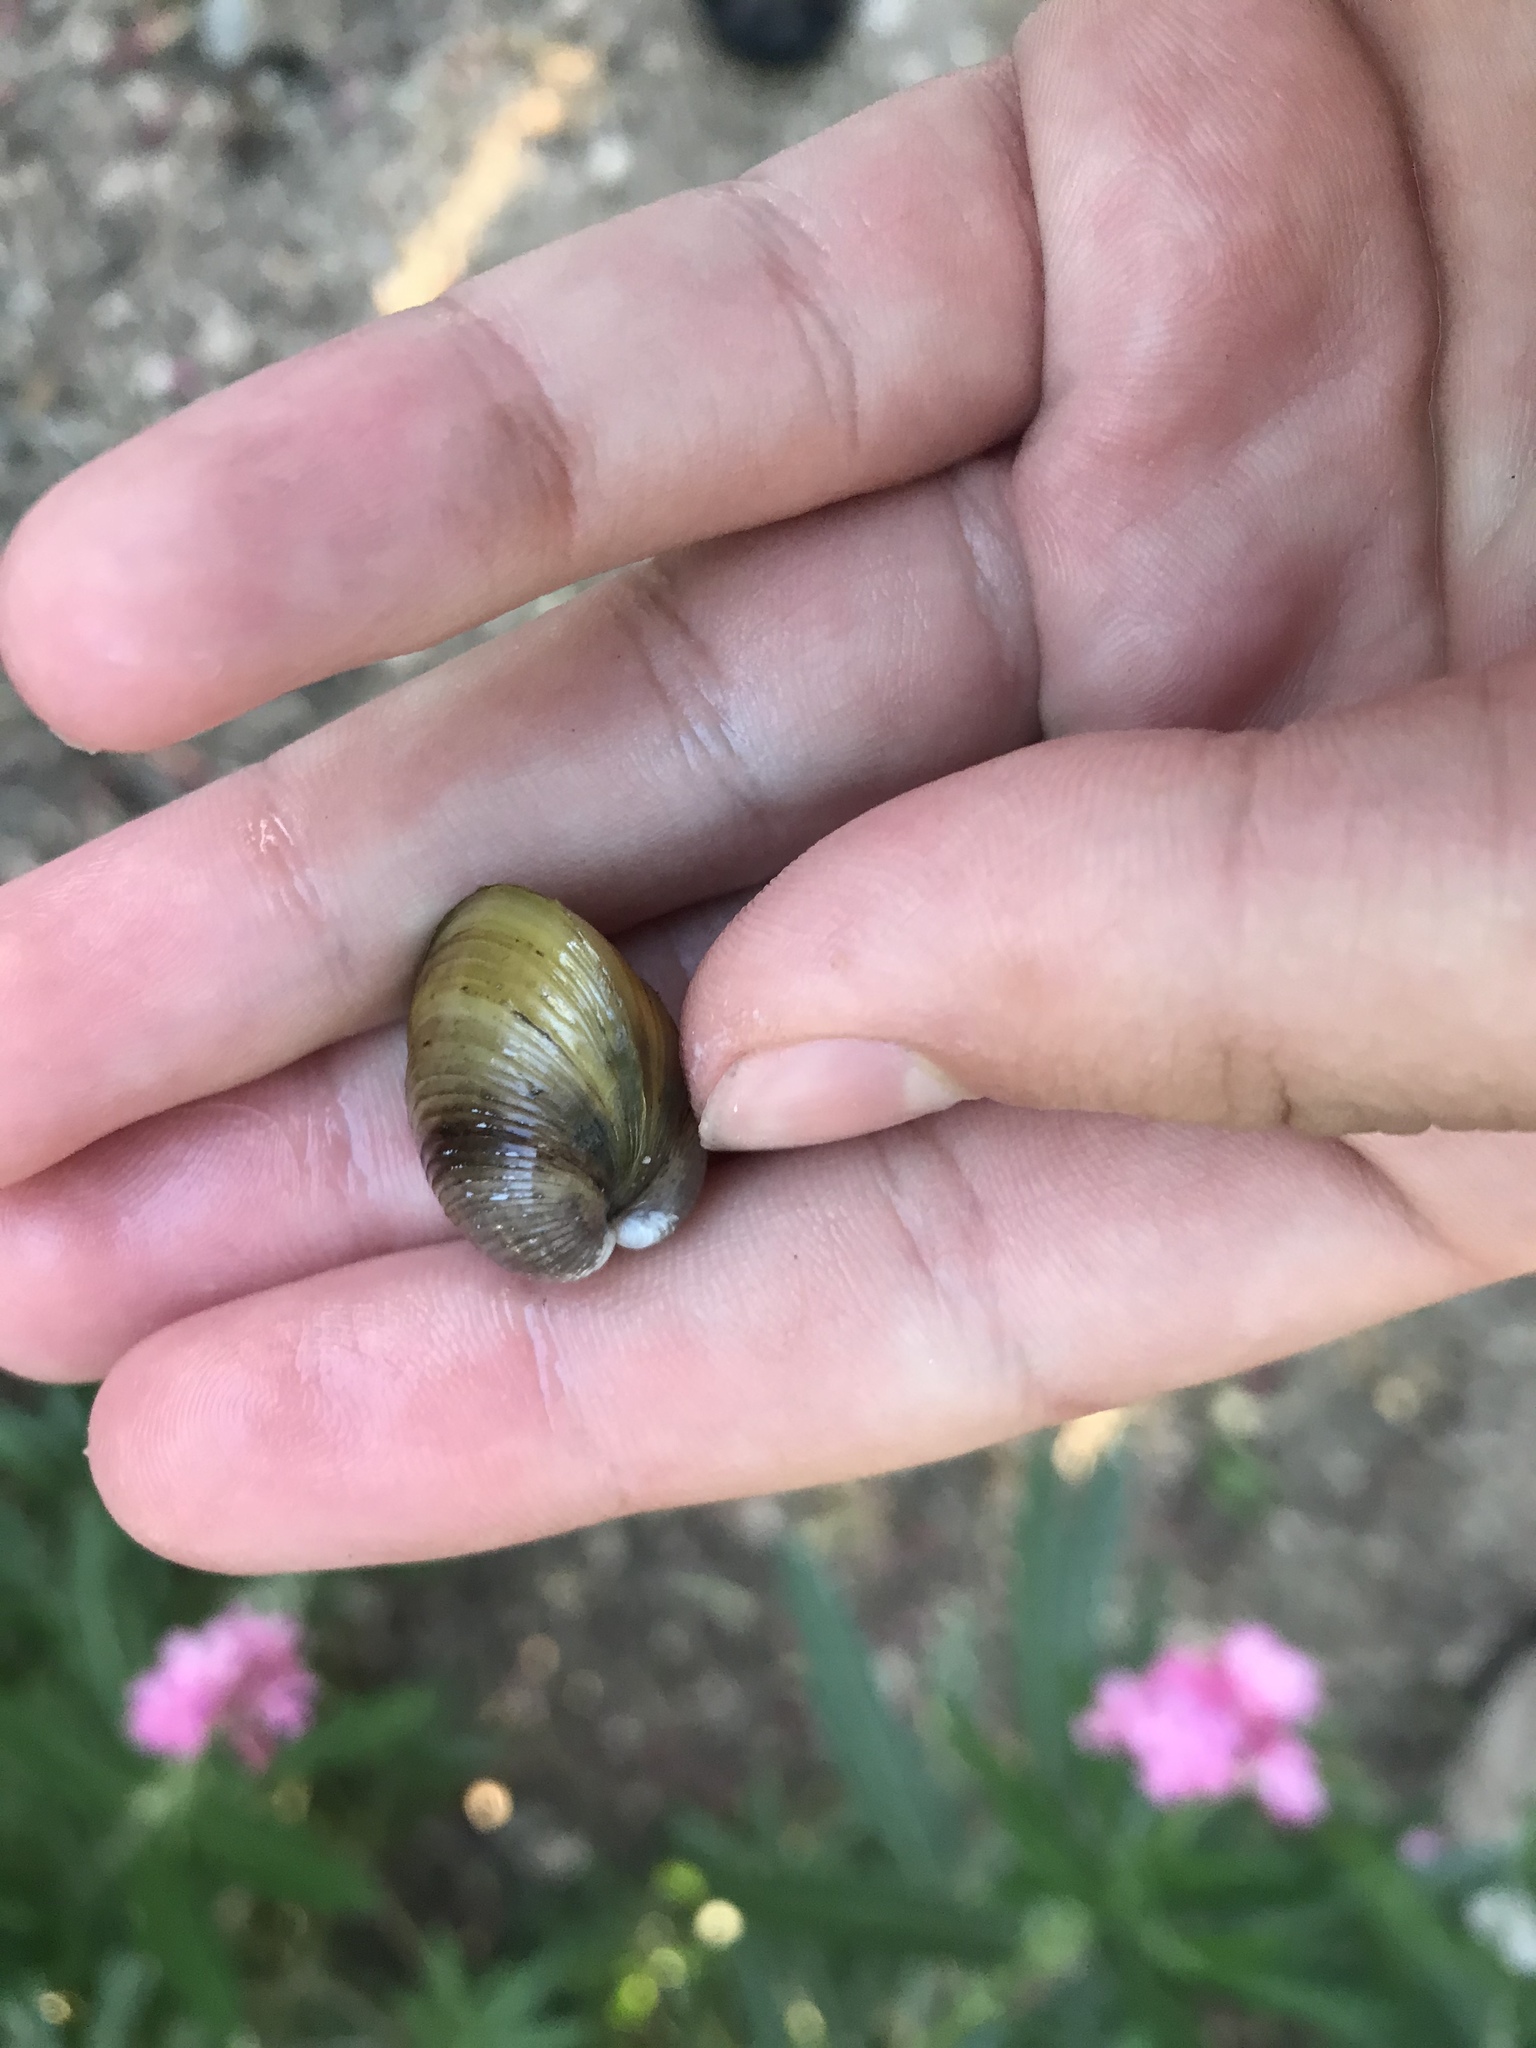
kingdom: Animalia
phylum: Mollusca
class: Bivalvia
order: Venerida
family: Cyrenidae
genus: Corbicula
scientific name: Corbicula fluminea
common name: Asian clam
